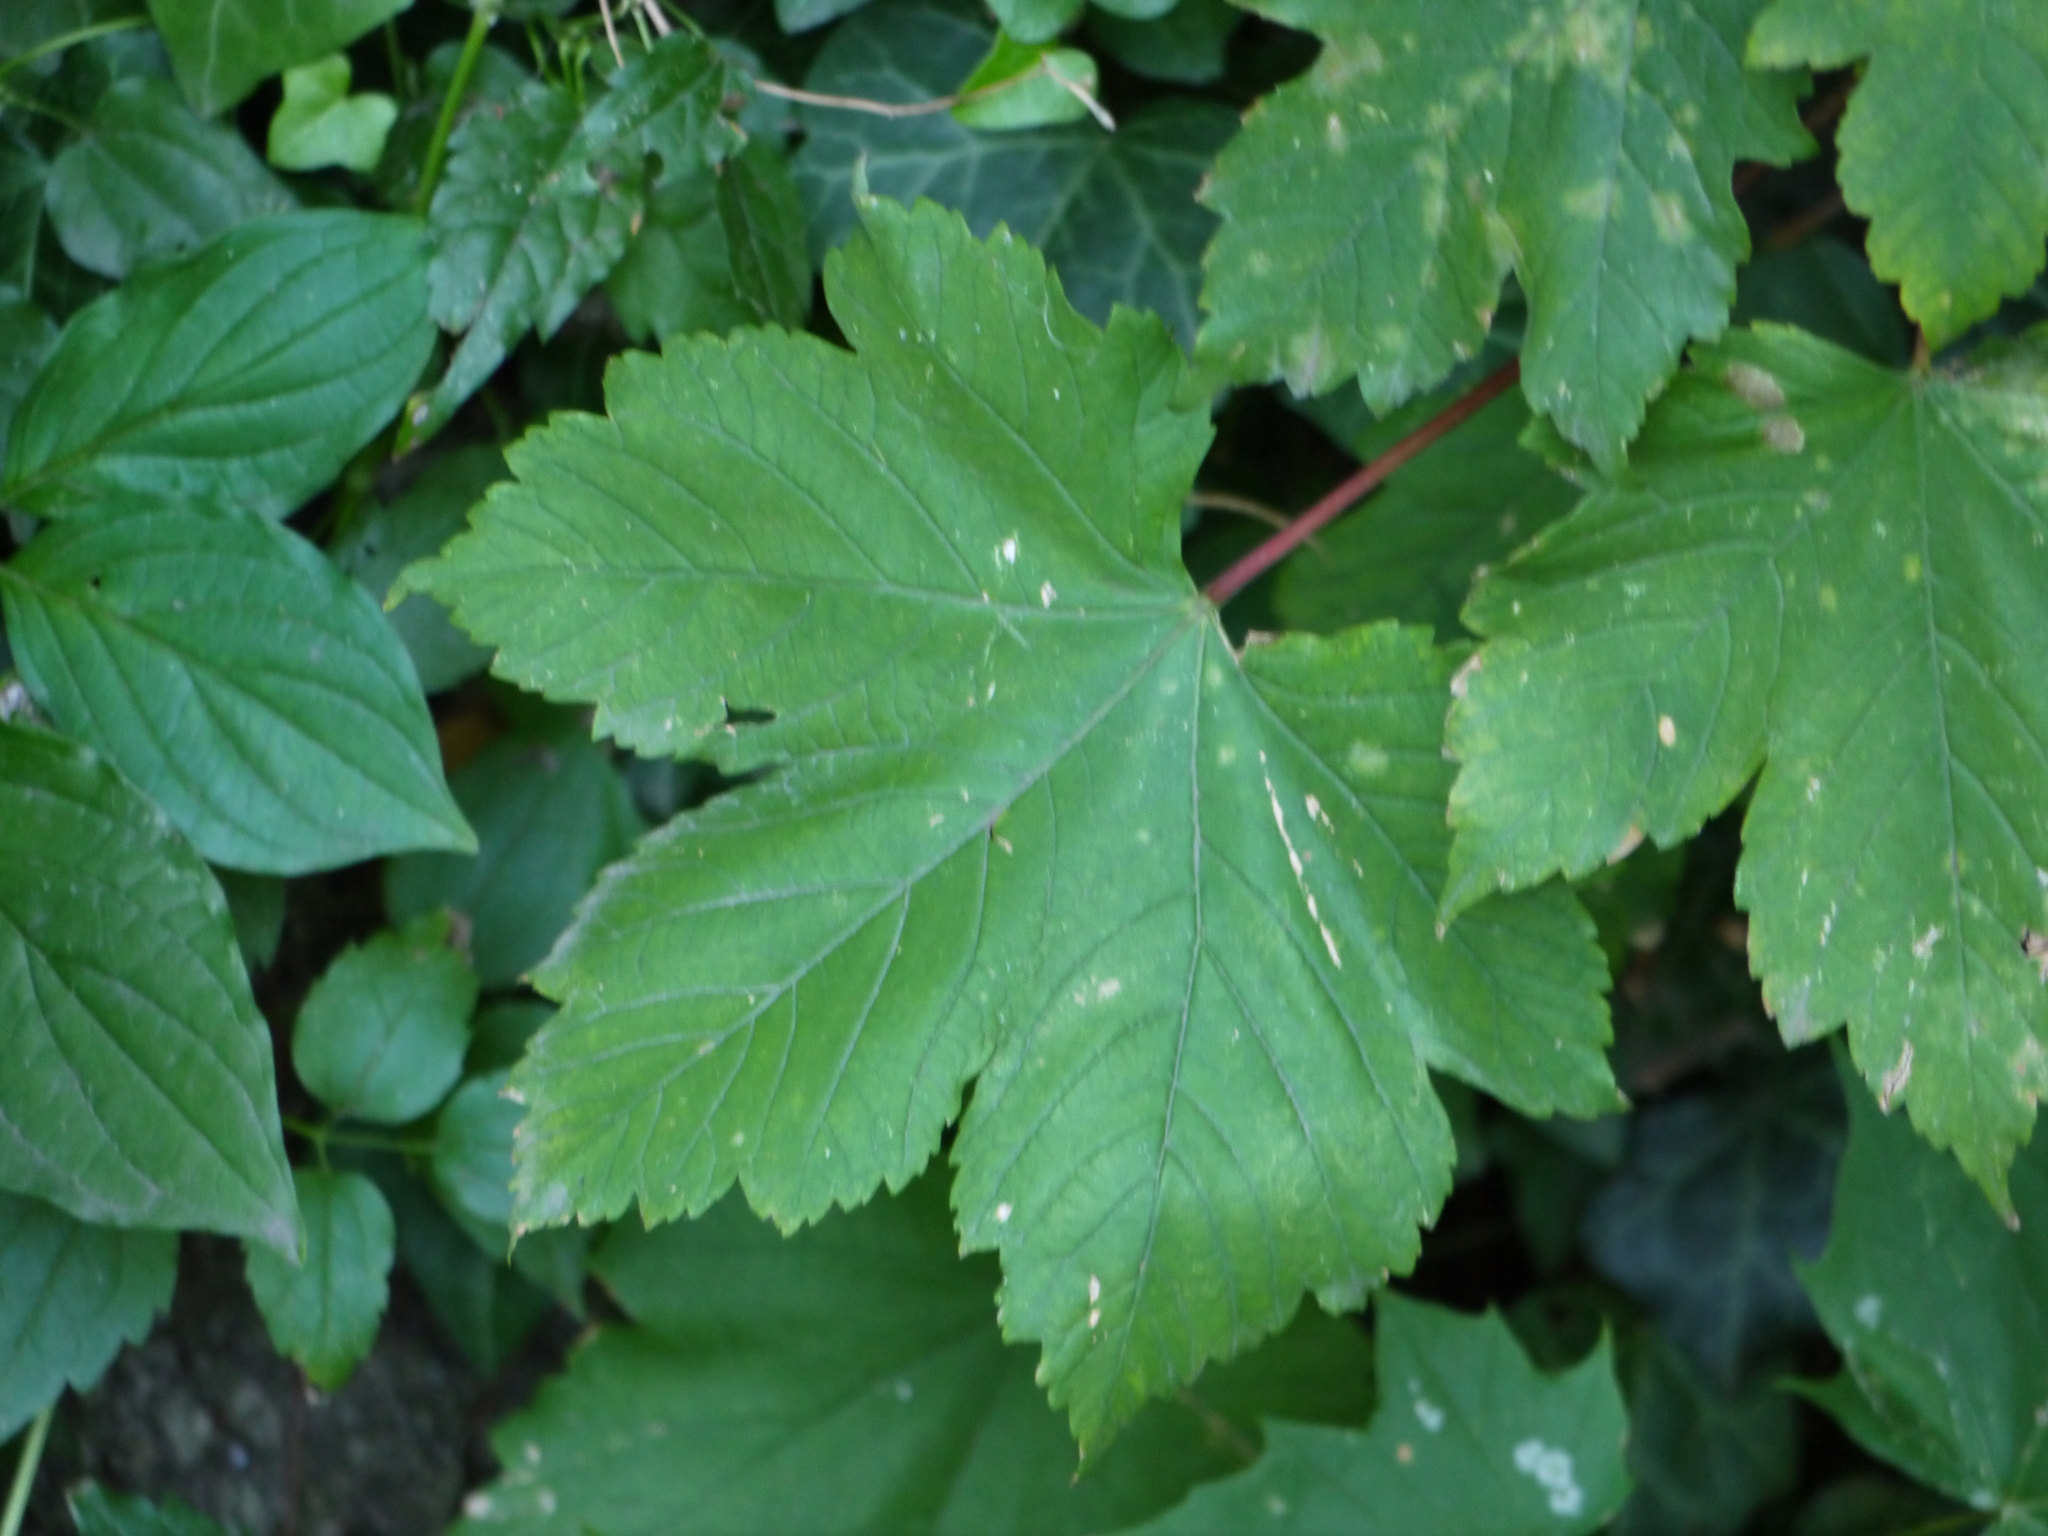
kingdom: Plantae
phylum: Tracheophyta
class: Magnoliopsida
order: Sapindales
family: Sapindaceae
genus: Acer
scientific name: Acer pseudoplatanus
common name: Sycamore
